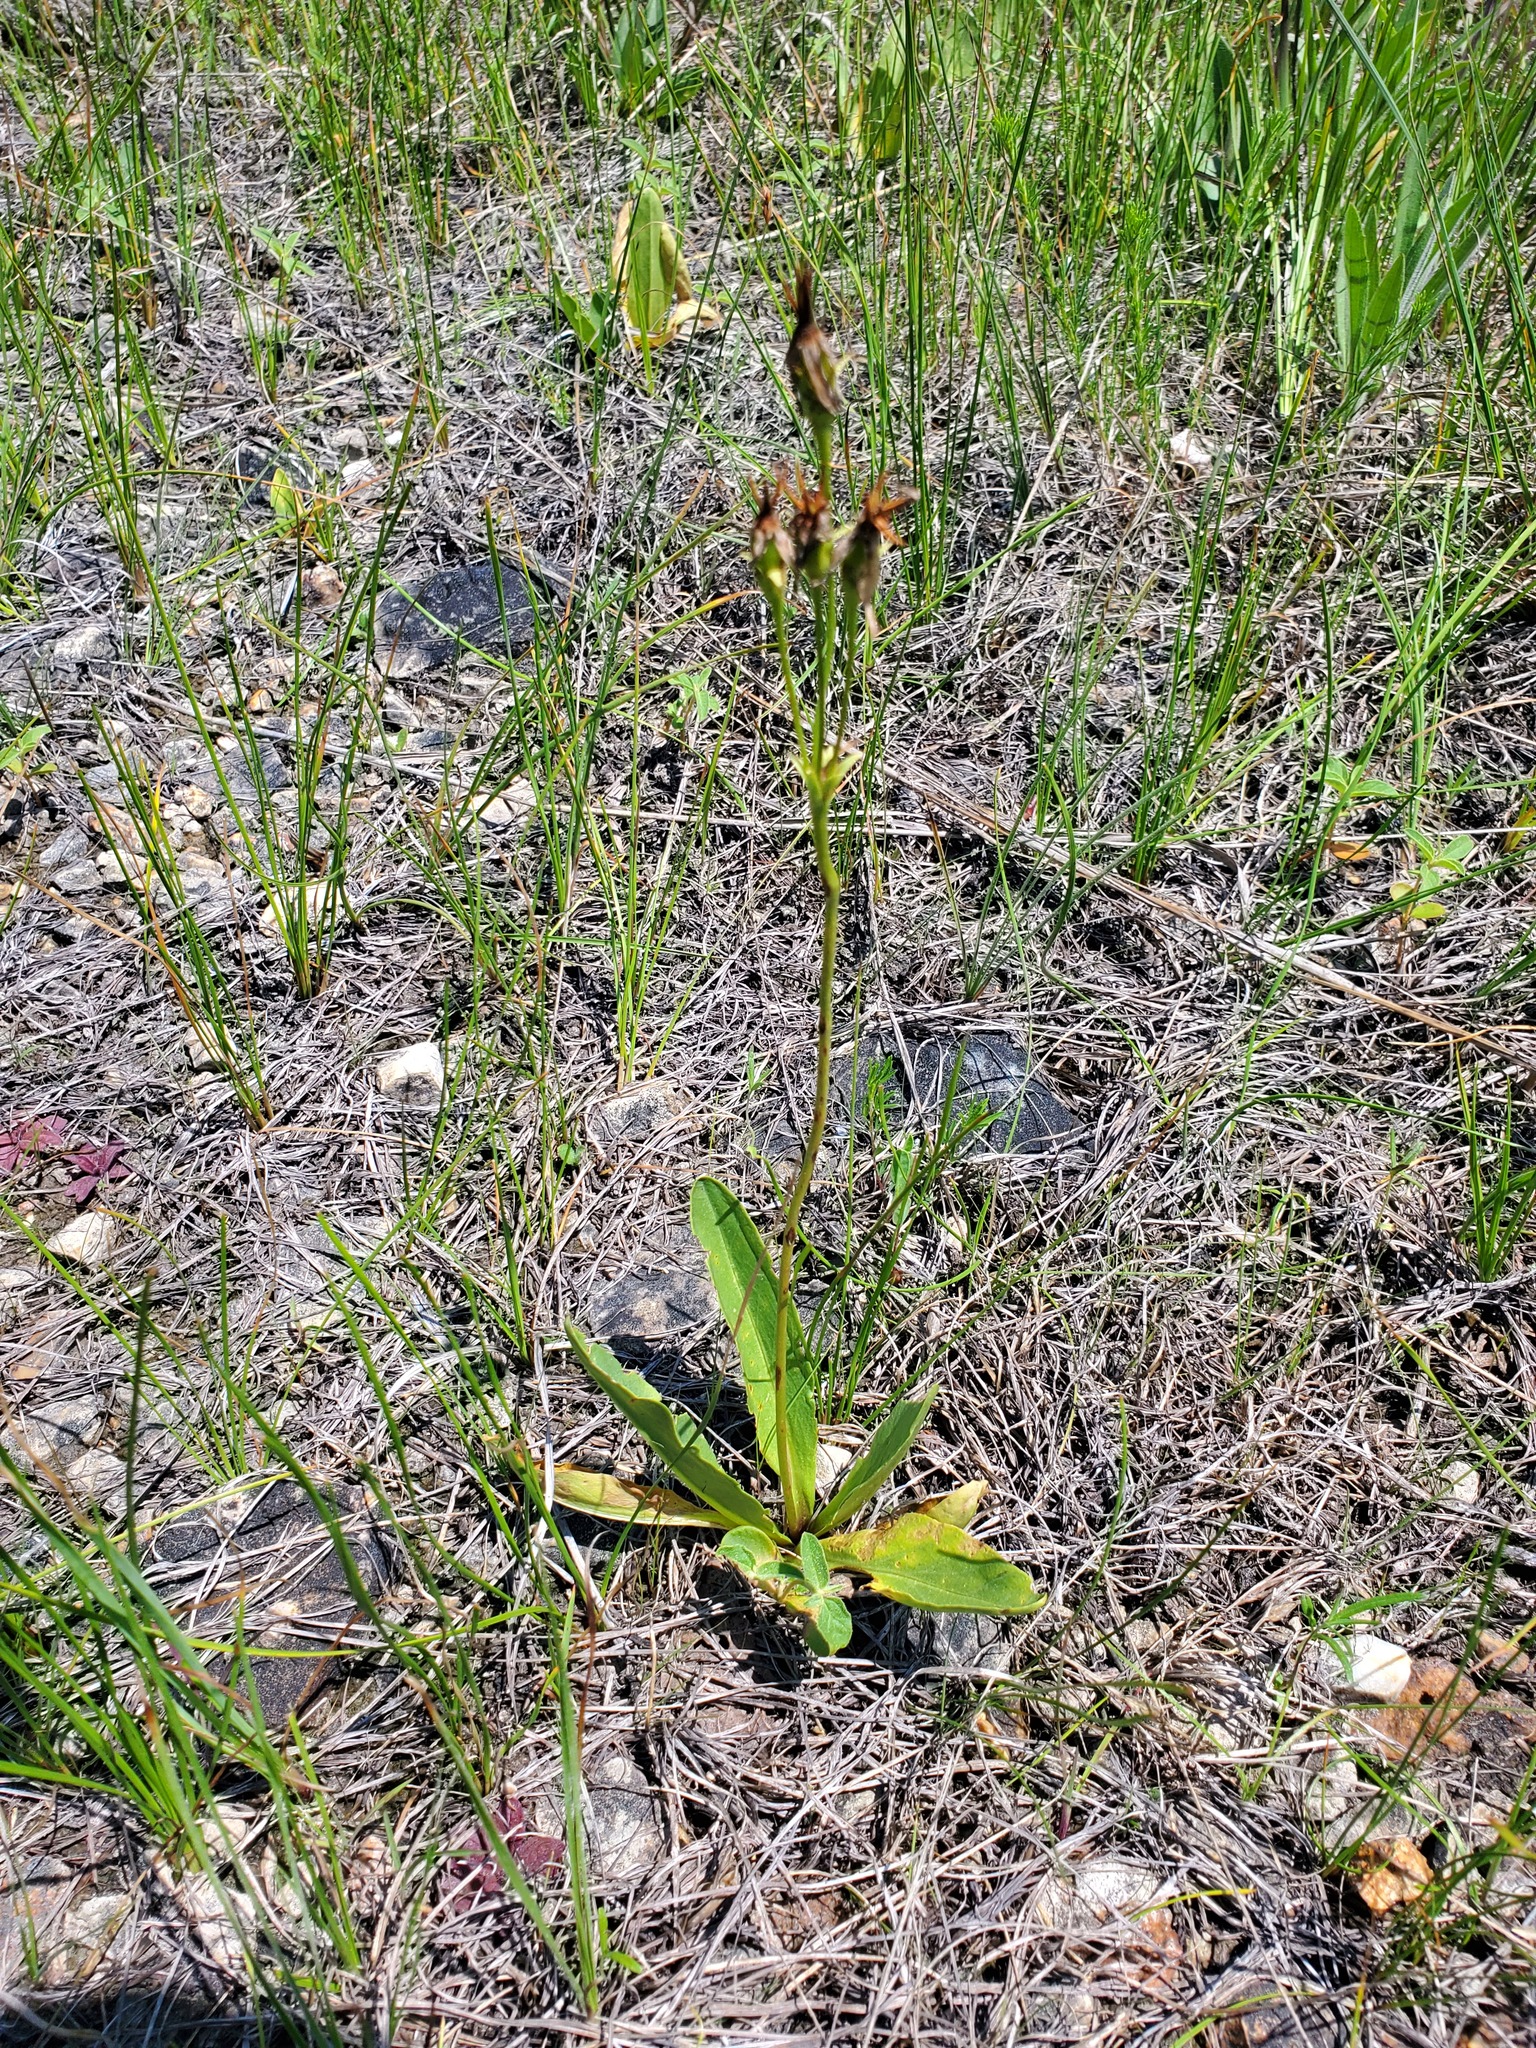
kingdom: Plantae
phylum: Tracheophyta
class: Magnoliopsida
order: Ericales
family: Primulaceae
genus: Dodecatheon
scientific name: Dodecatheon meadia
